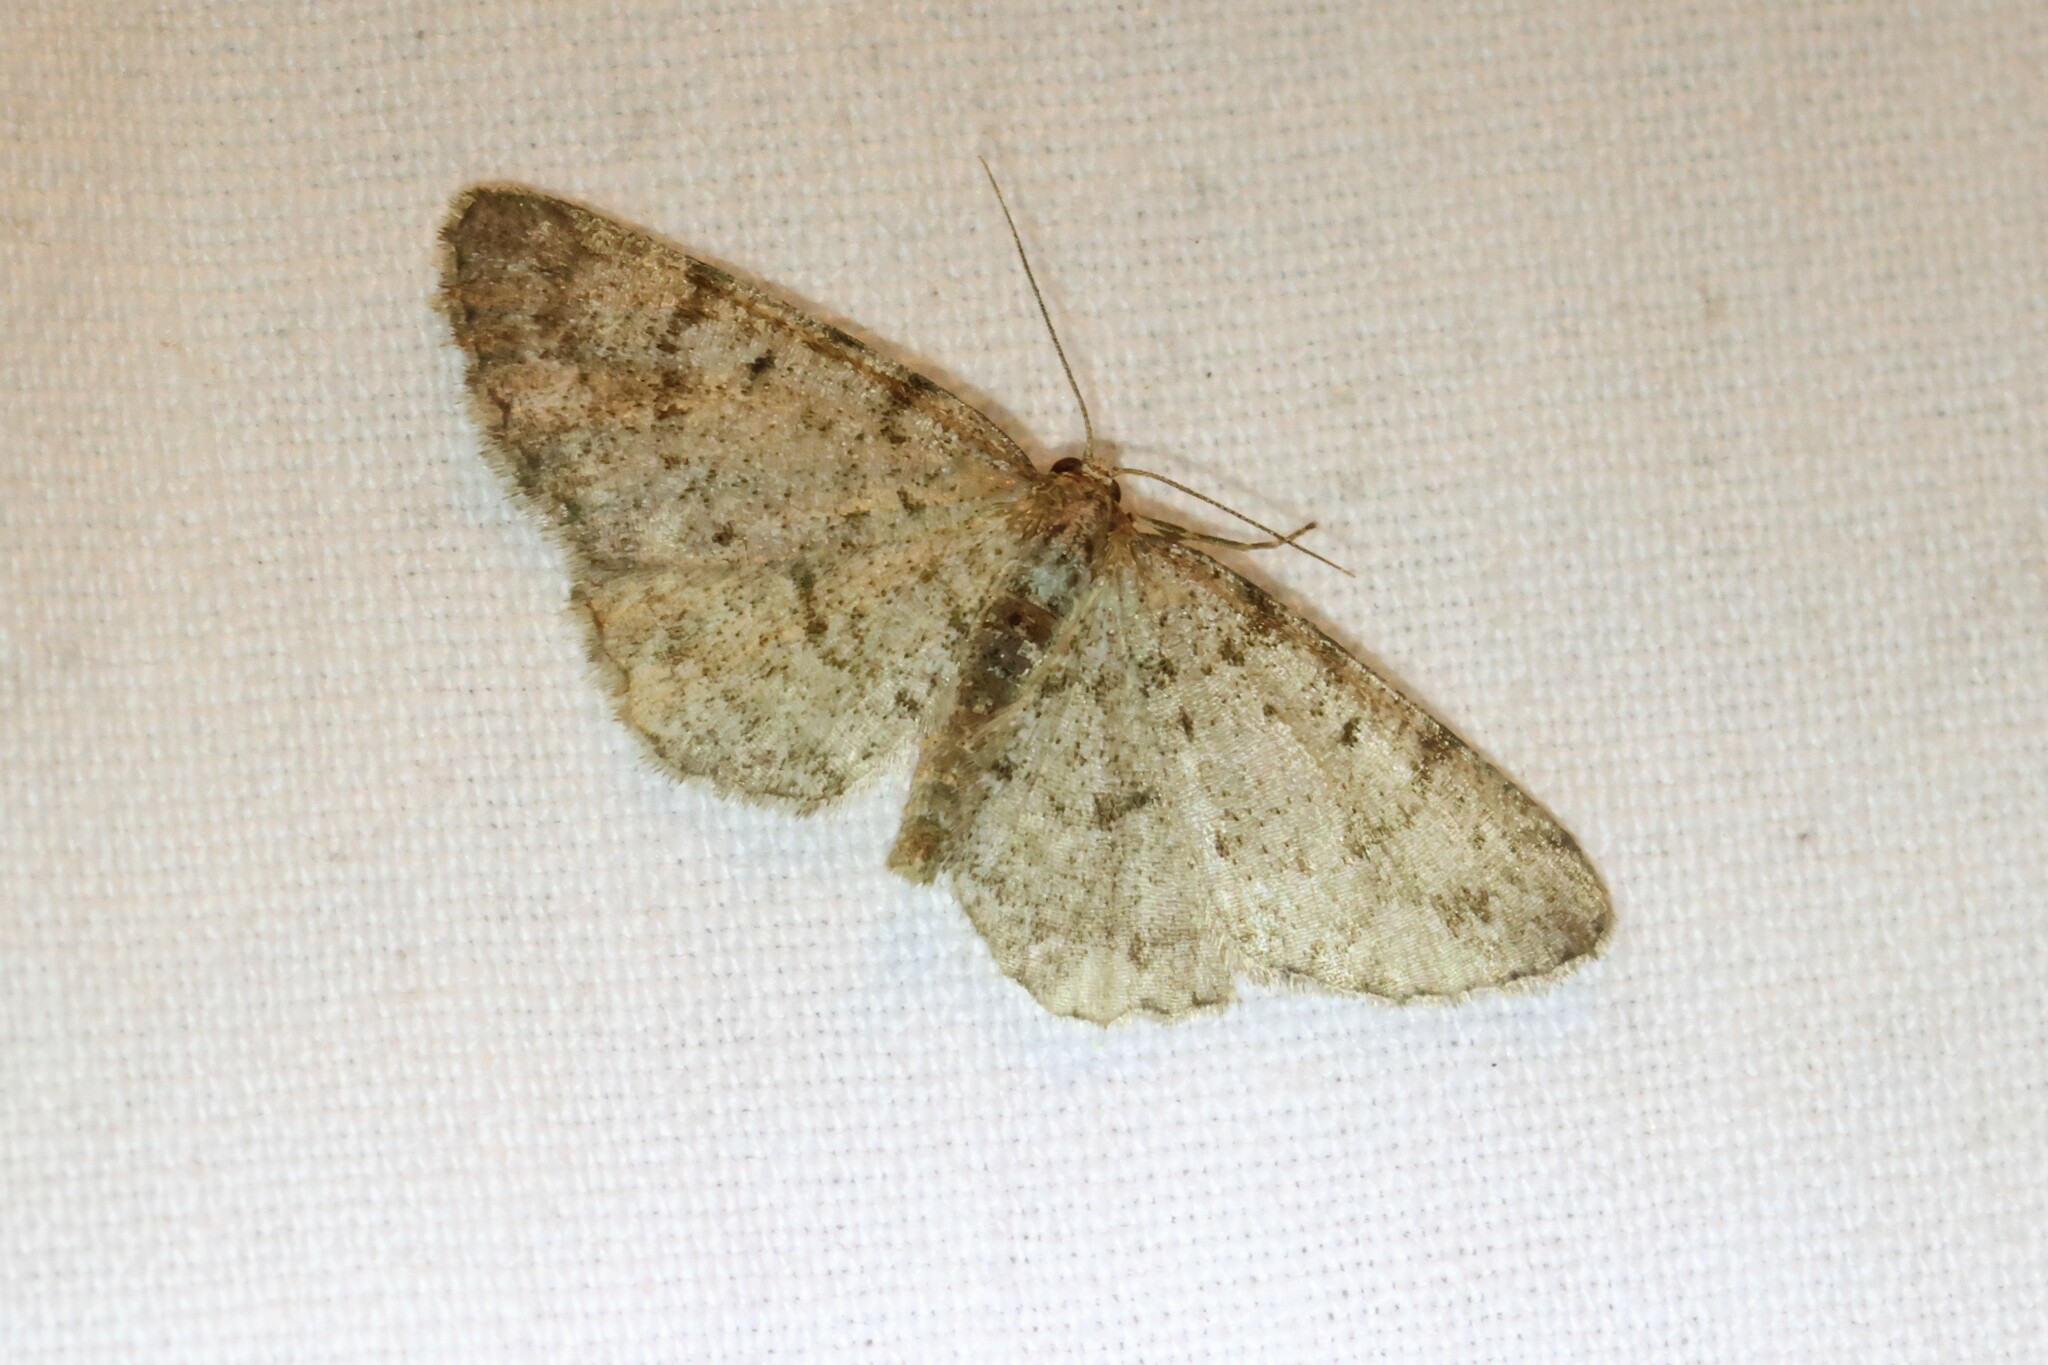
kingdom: Animalia
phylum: Arthropoda
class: Insecta
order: Lepidoptera
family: Geometridae
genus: Aethalura
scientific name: Aethalura intertexta
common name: Four-barred gray
